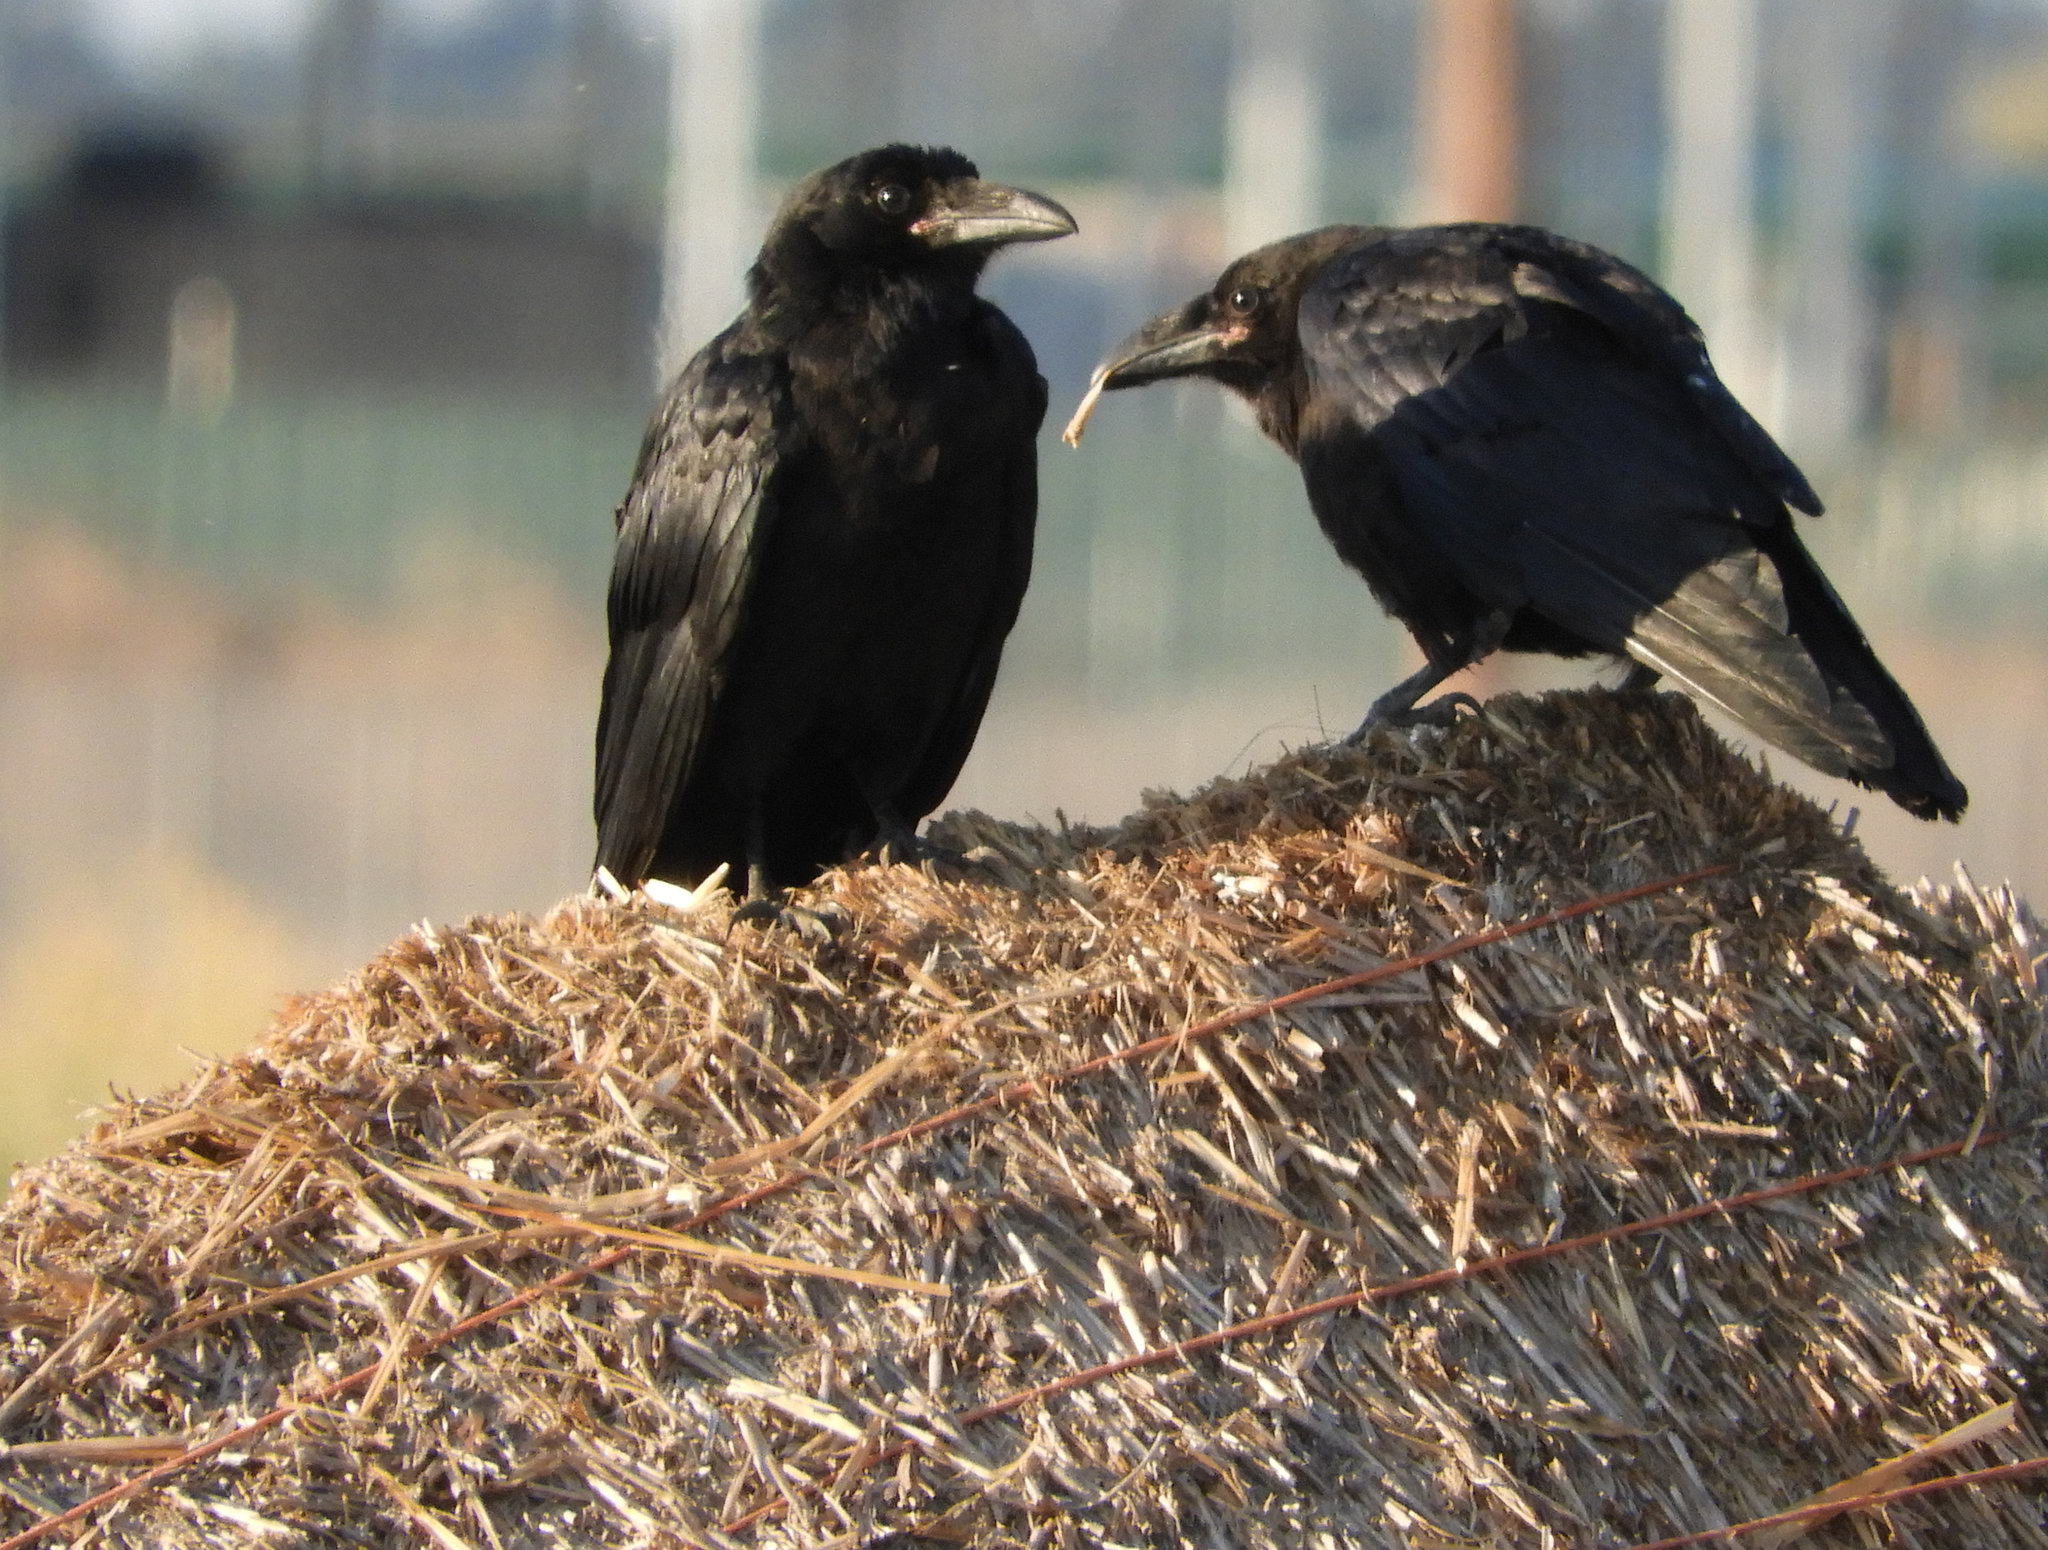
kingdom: Animalia
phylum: Chordata
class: Aves
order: Passeriformes
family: Corvidae
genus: Corvus
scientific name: Corvus brachyrhynchos
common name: American crow
